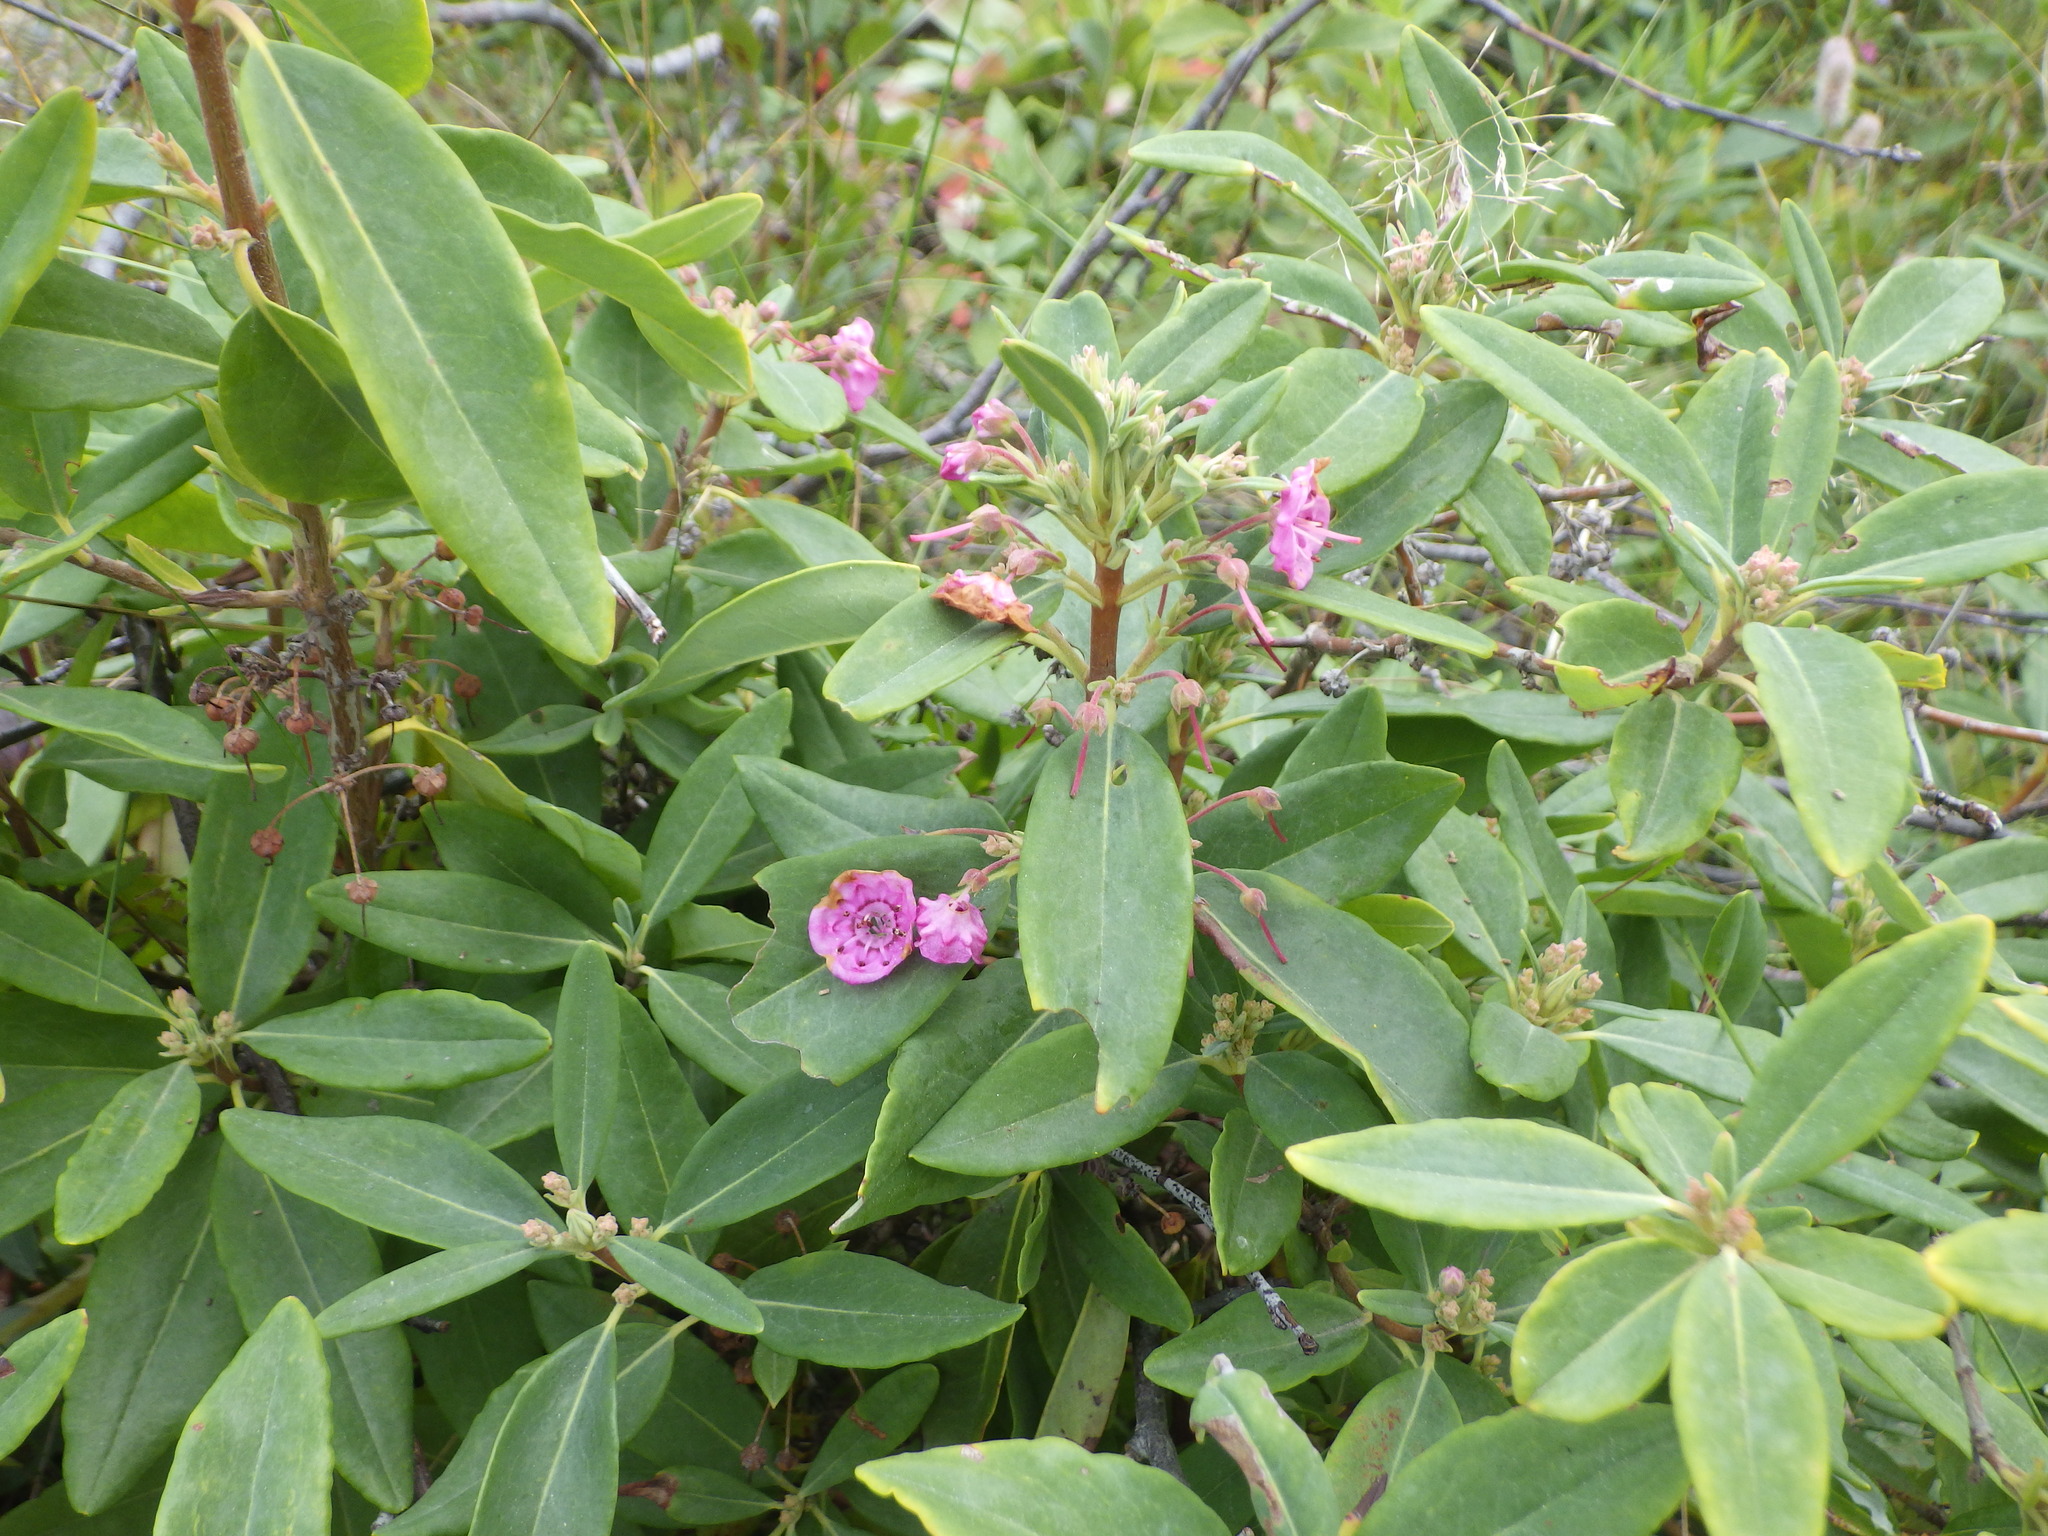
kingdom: Plantae
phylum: Tracheophyta
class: Magnoliopsida
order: Ericales
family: Ericaceae
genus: Kalmia
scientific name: Kalmia angustifolia
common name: Sheep-laurel
